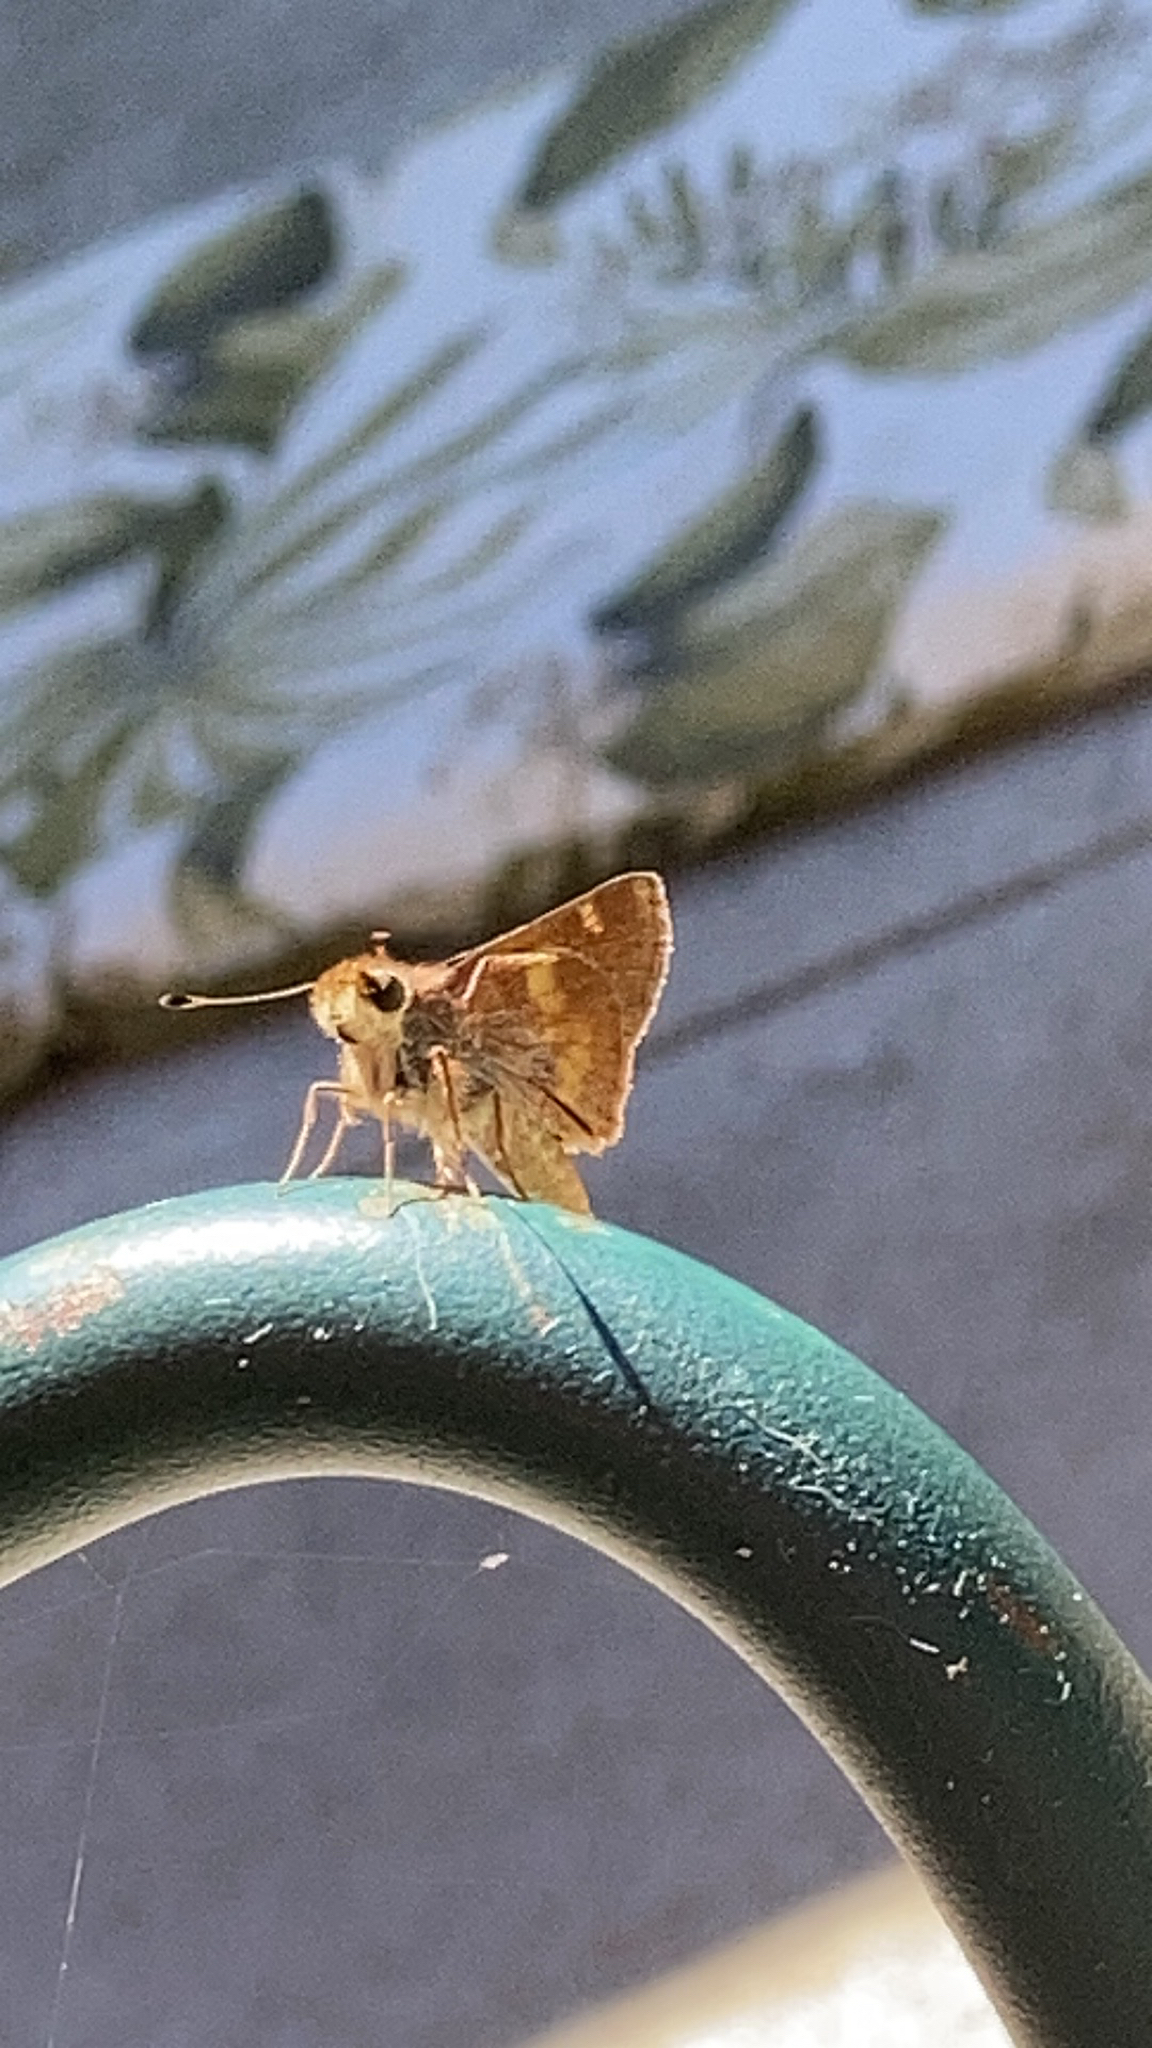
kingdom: Animalia
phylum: Arthropoda
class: Insecta
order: Lepidoptera
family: Hesperiidae
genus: Lon
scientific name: Lon melane
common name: Umber skipper
